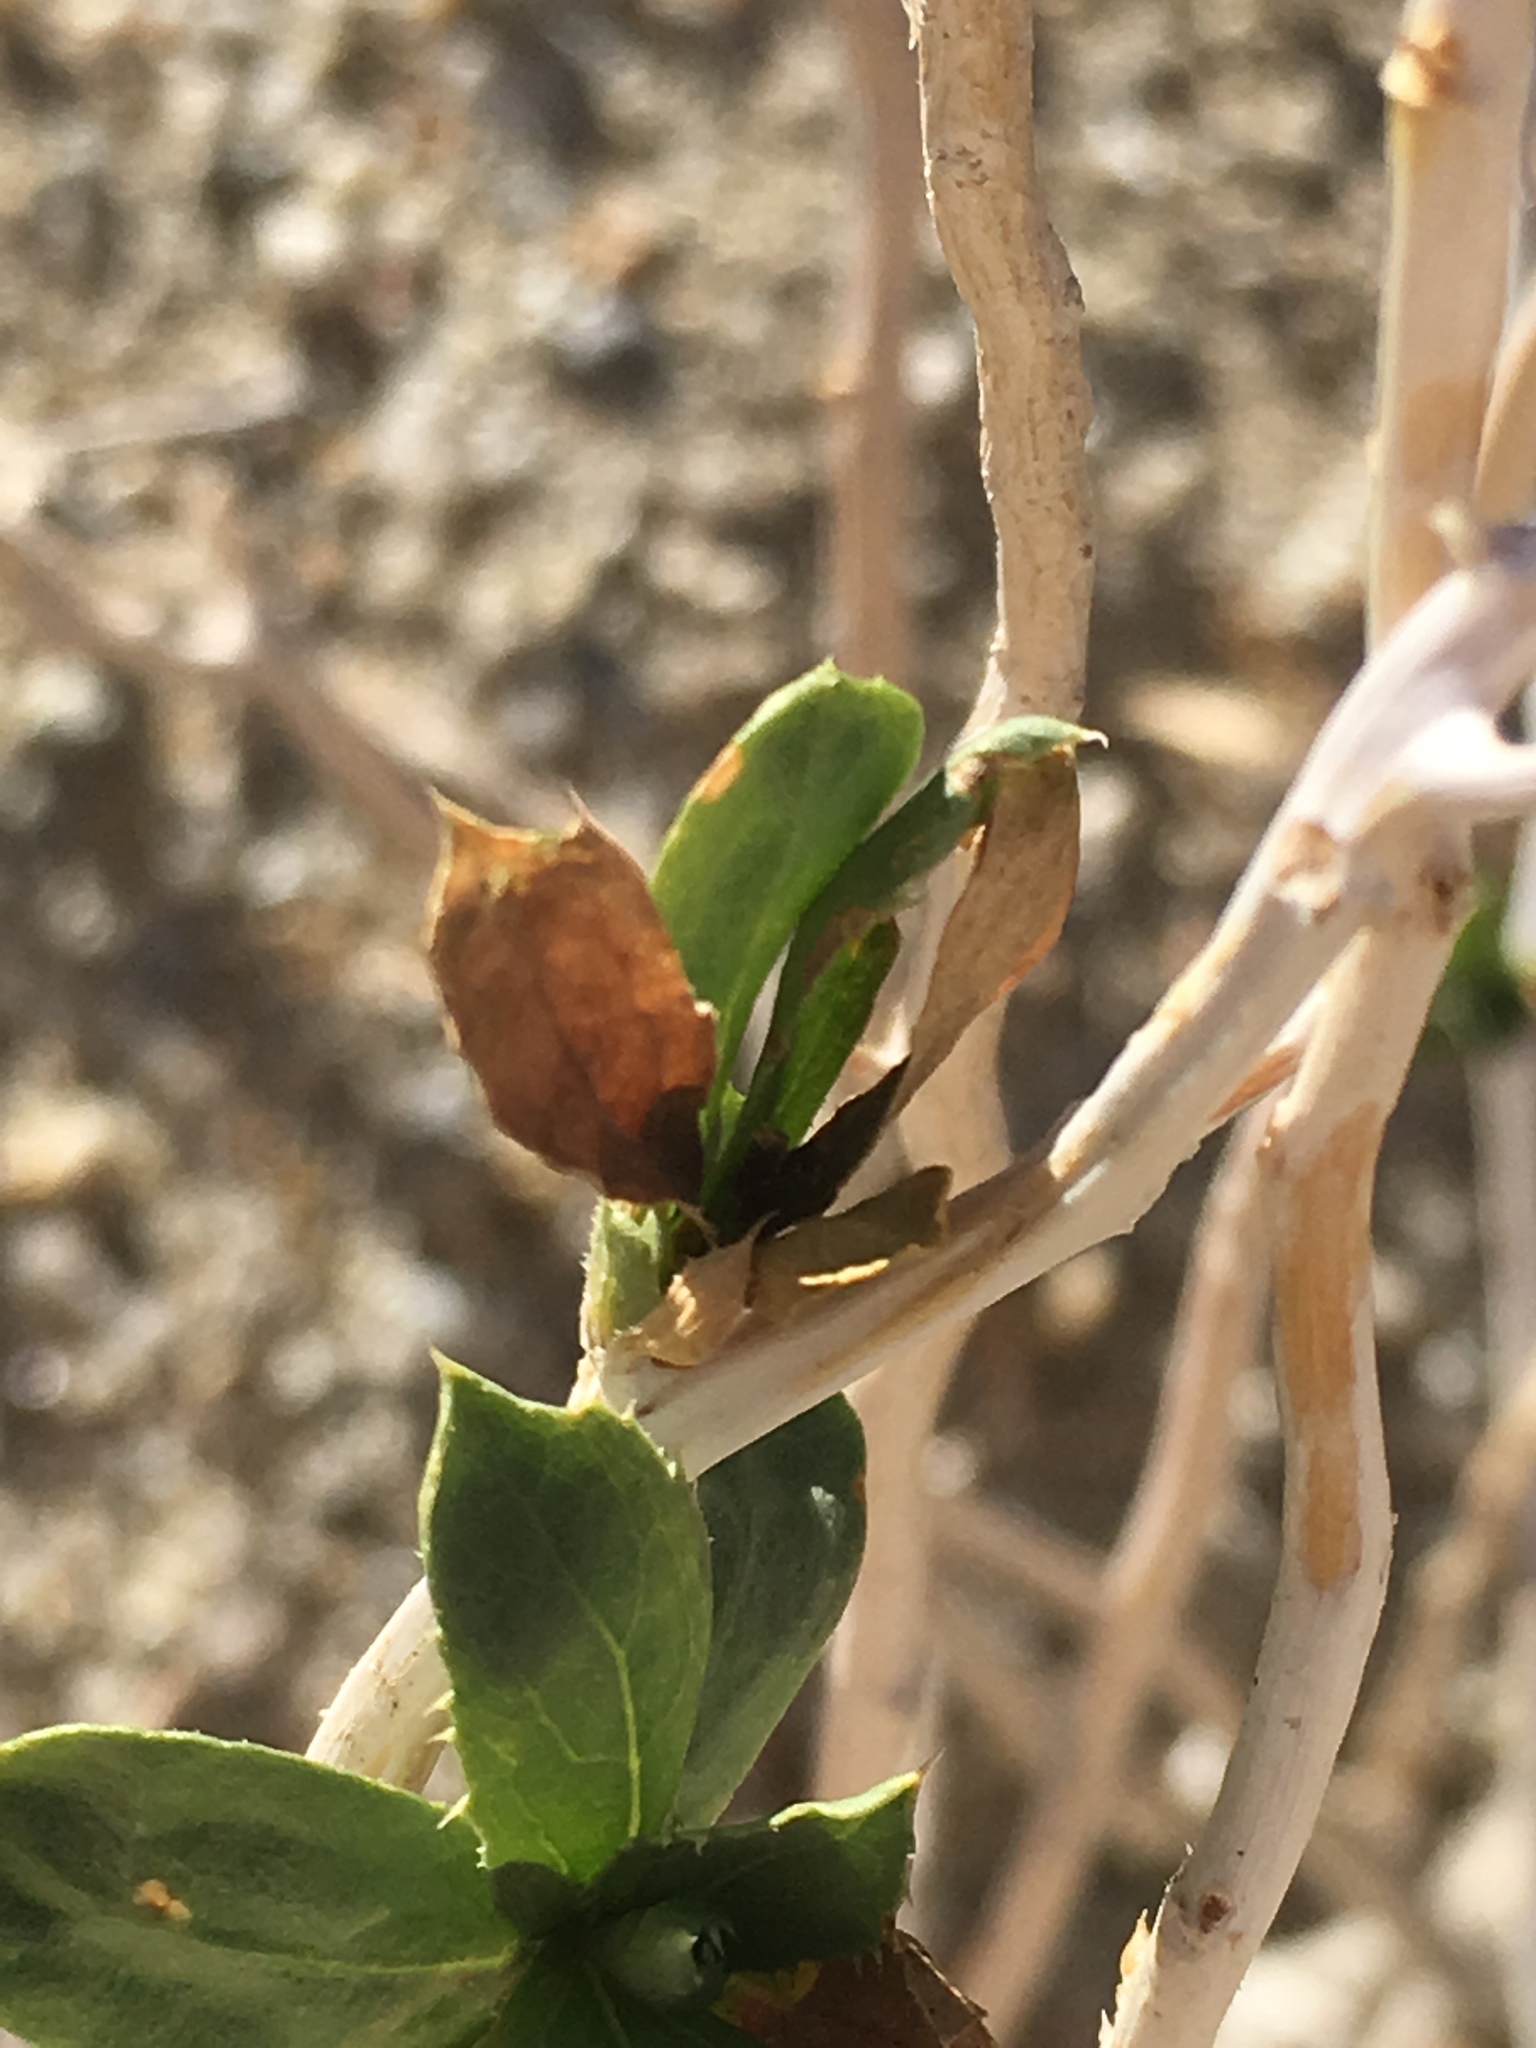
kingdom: Plantae
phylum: Tracheophyta
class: Magnoliopsida
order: Asterales
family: Asteraceae
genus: Xylorhiza
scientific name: Xylorhiza orcuttii
